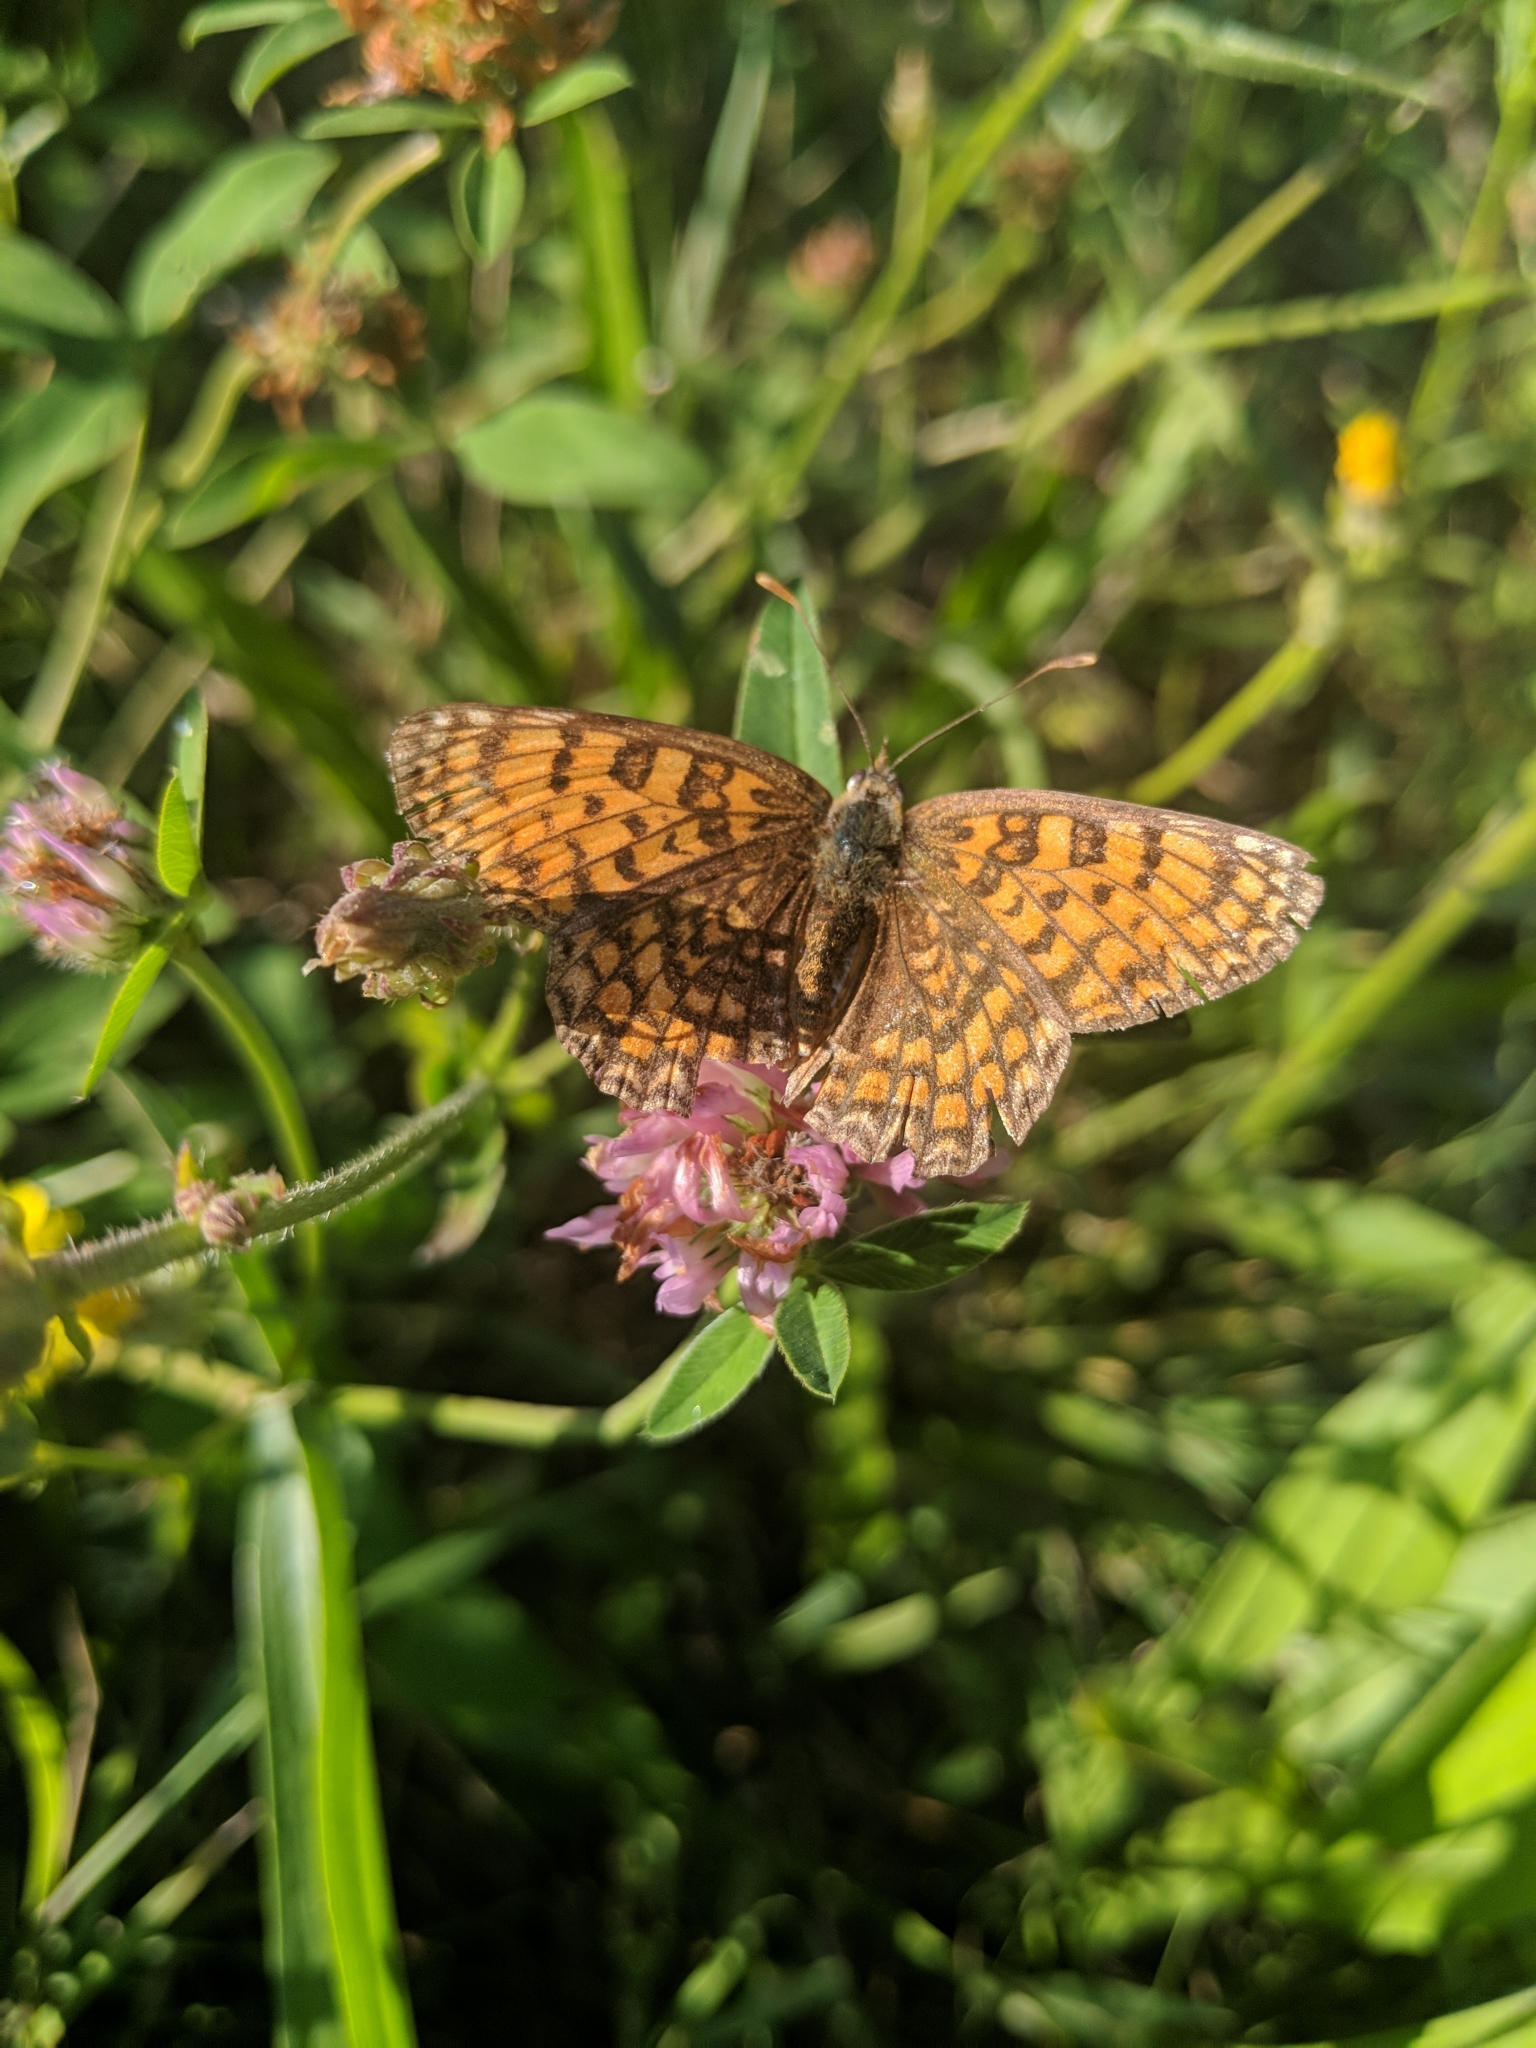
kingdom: Animalia
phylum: Arthropoda
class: Insecta
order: Lepidoptera
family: Nymphalidae
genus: Melitaea
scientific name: Melitaea phoebe
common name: Knapweed fritillary
